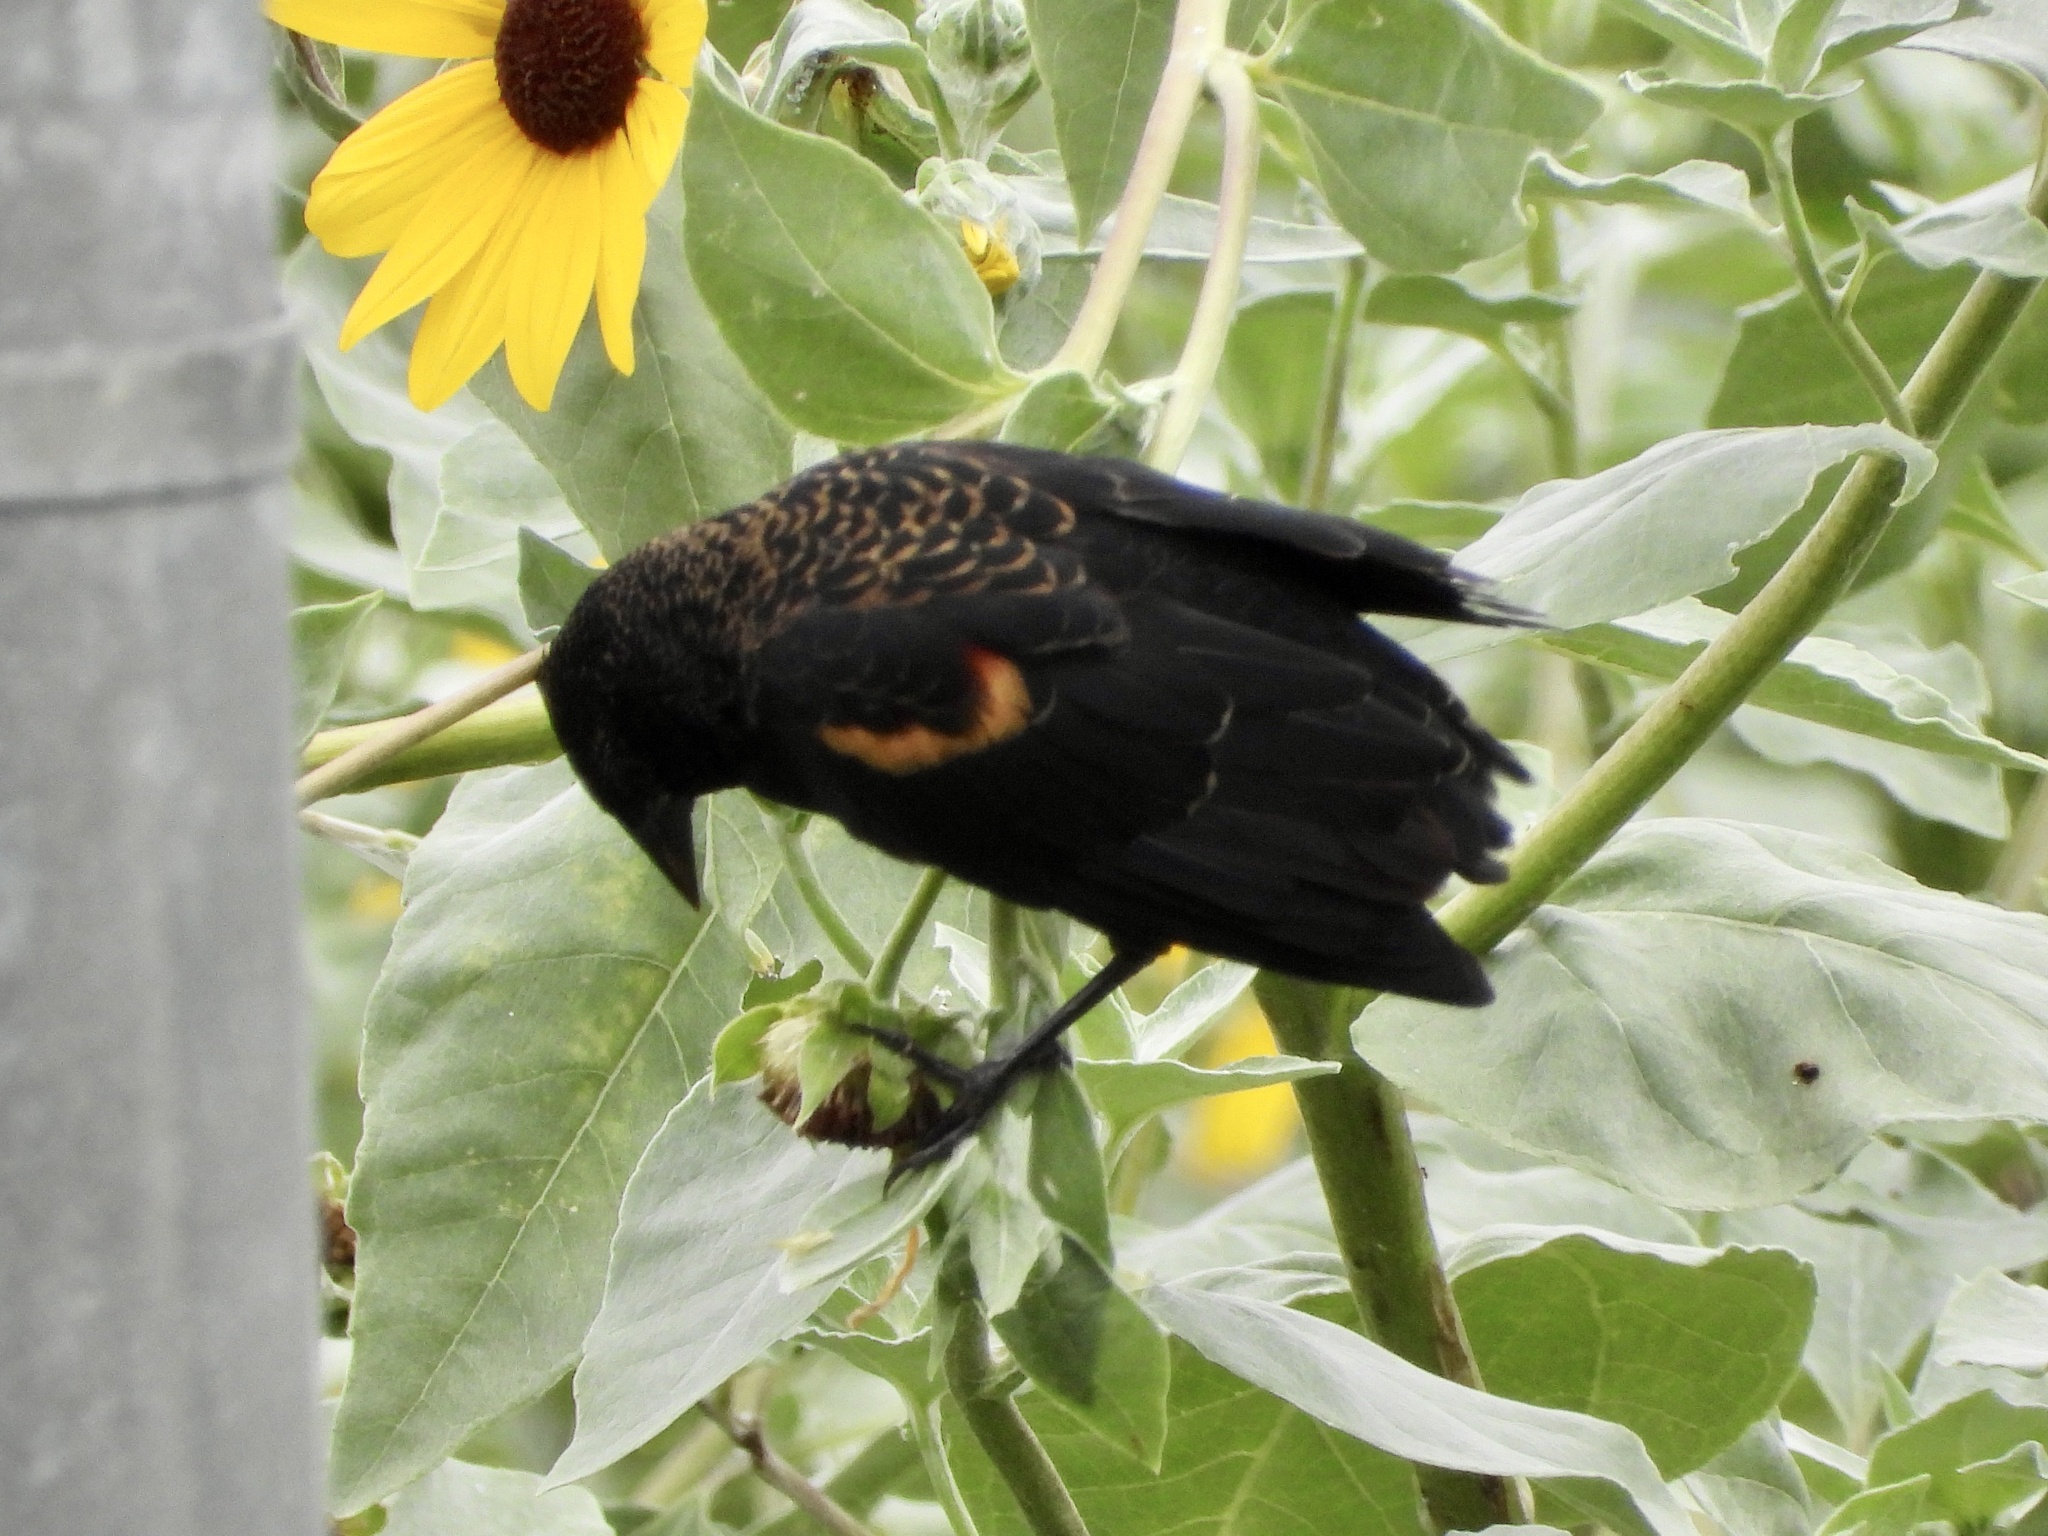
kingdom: Animalia
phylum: Chordata
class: Aves
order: Passeriformes
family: Icteridae
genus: Agelaius
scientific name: Agelaius phoeniceus
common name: Red-winged blackbird
